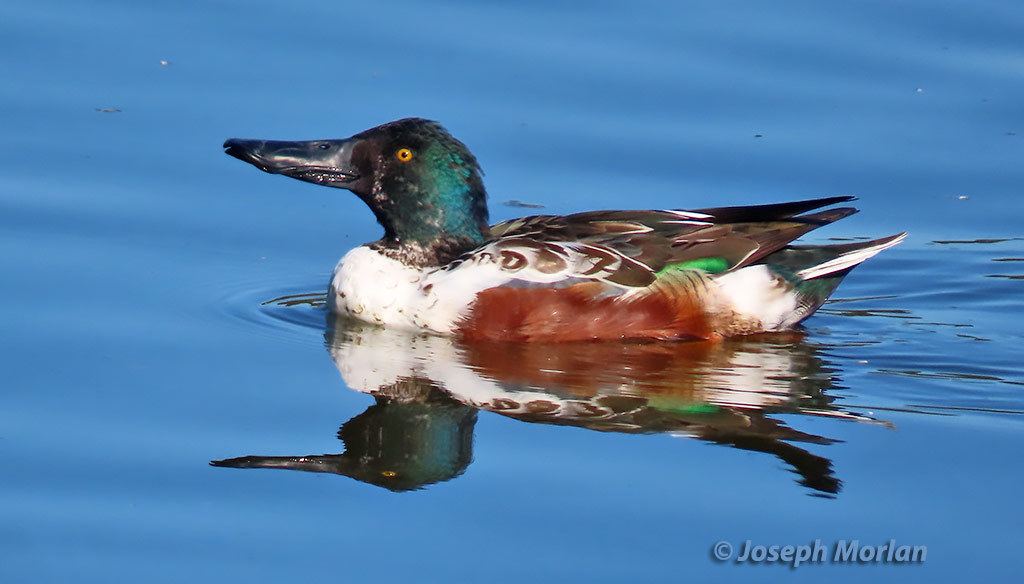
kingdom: Animalia
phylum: Chordata
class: Aves
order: Anseriformes
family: Anatidae
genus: Spatula
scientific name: Spatula clypeata
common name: Northern shoveler
